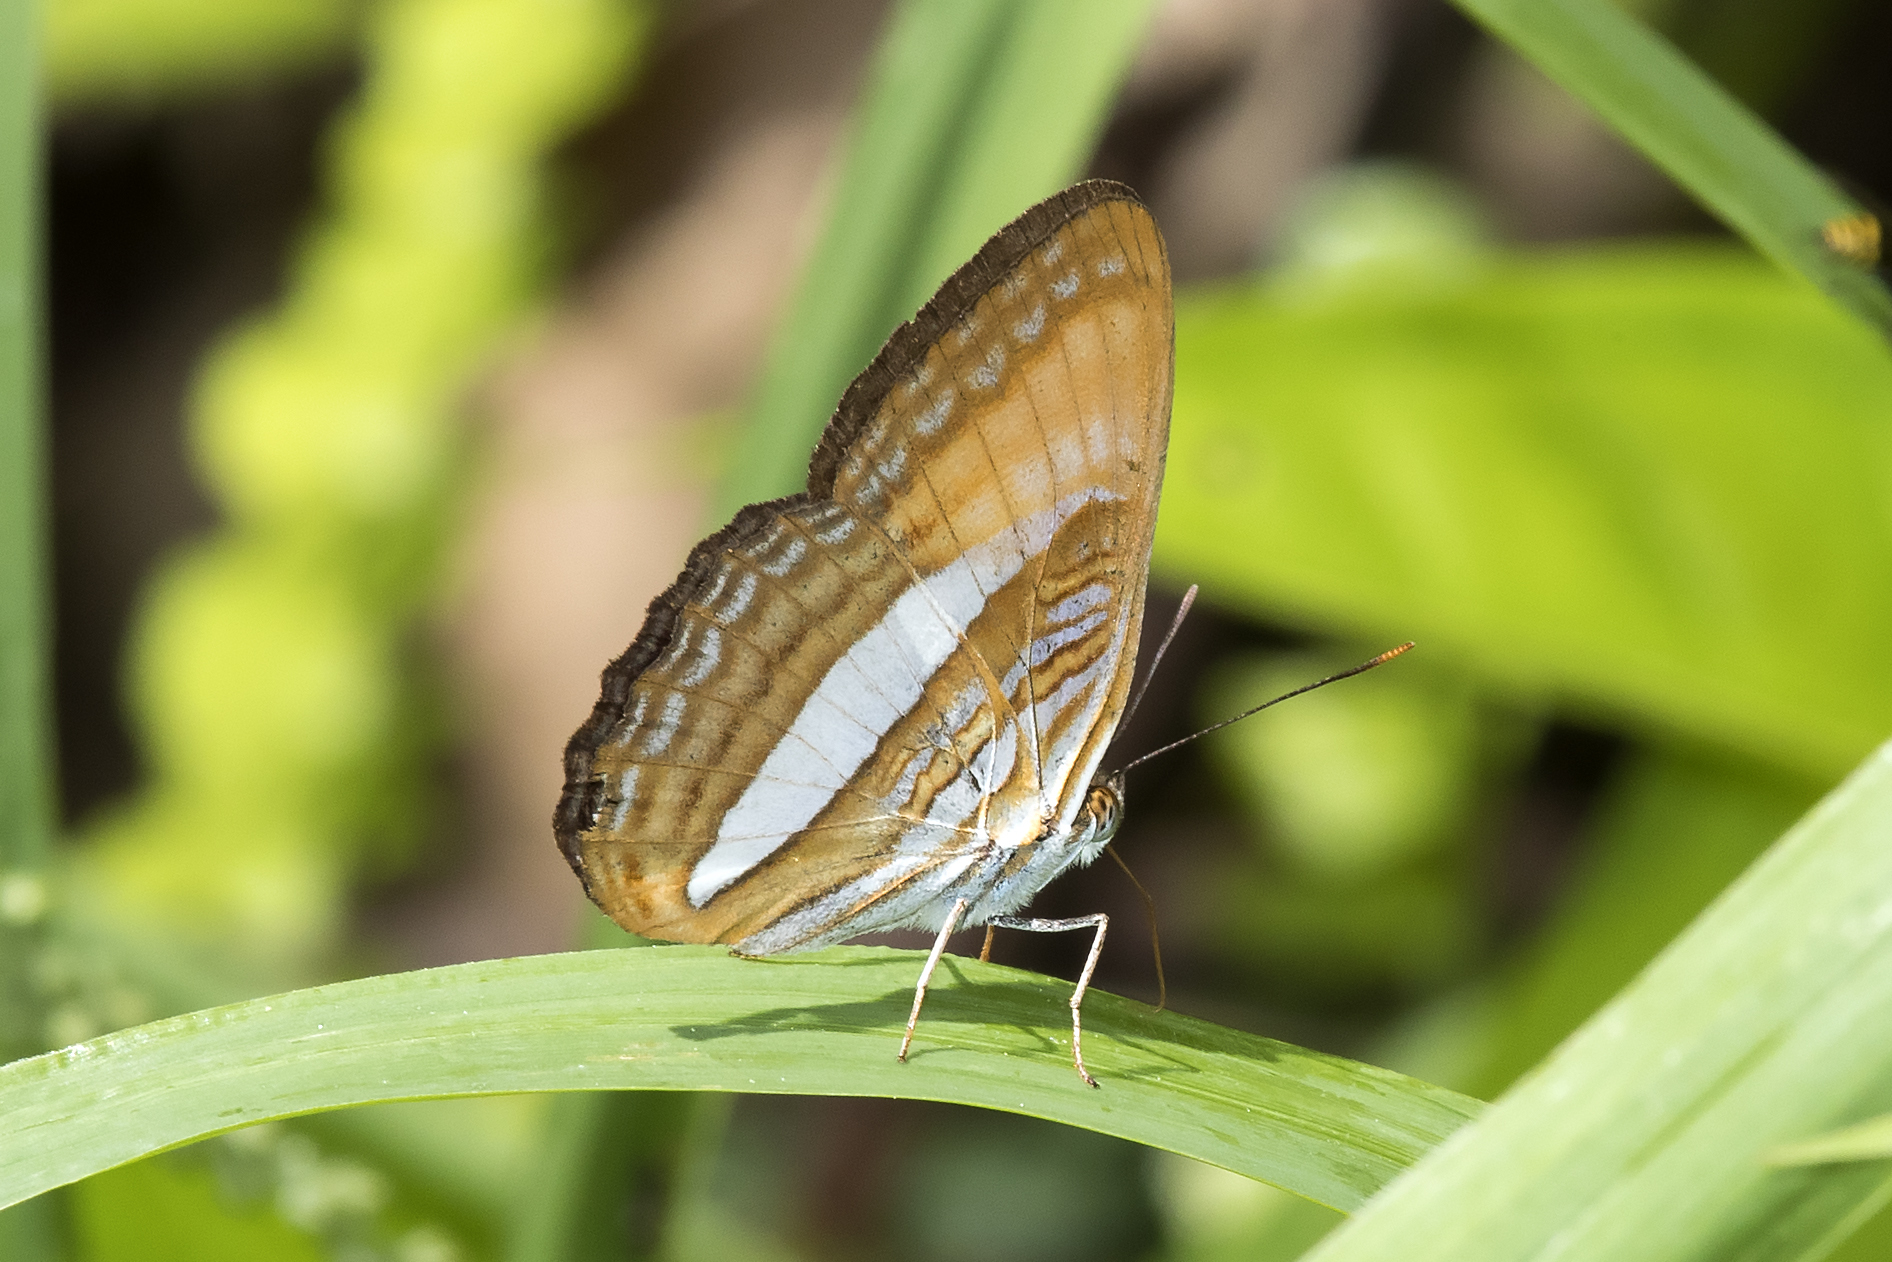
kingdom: Animalia
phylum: Arthropoda
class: Insecta
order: Lepidoptera
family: Nymphalidae
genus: Limenitis
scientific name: Limenitis cytherea
